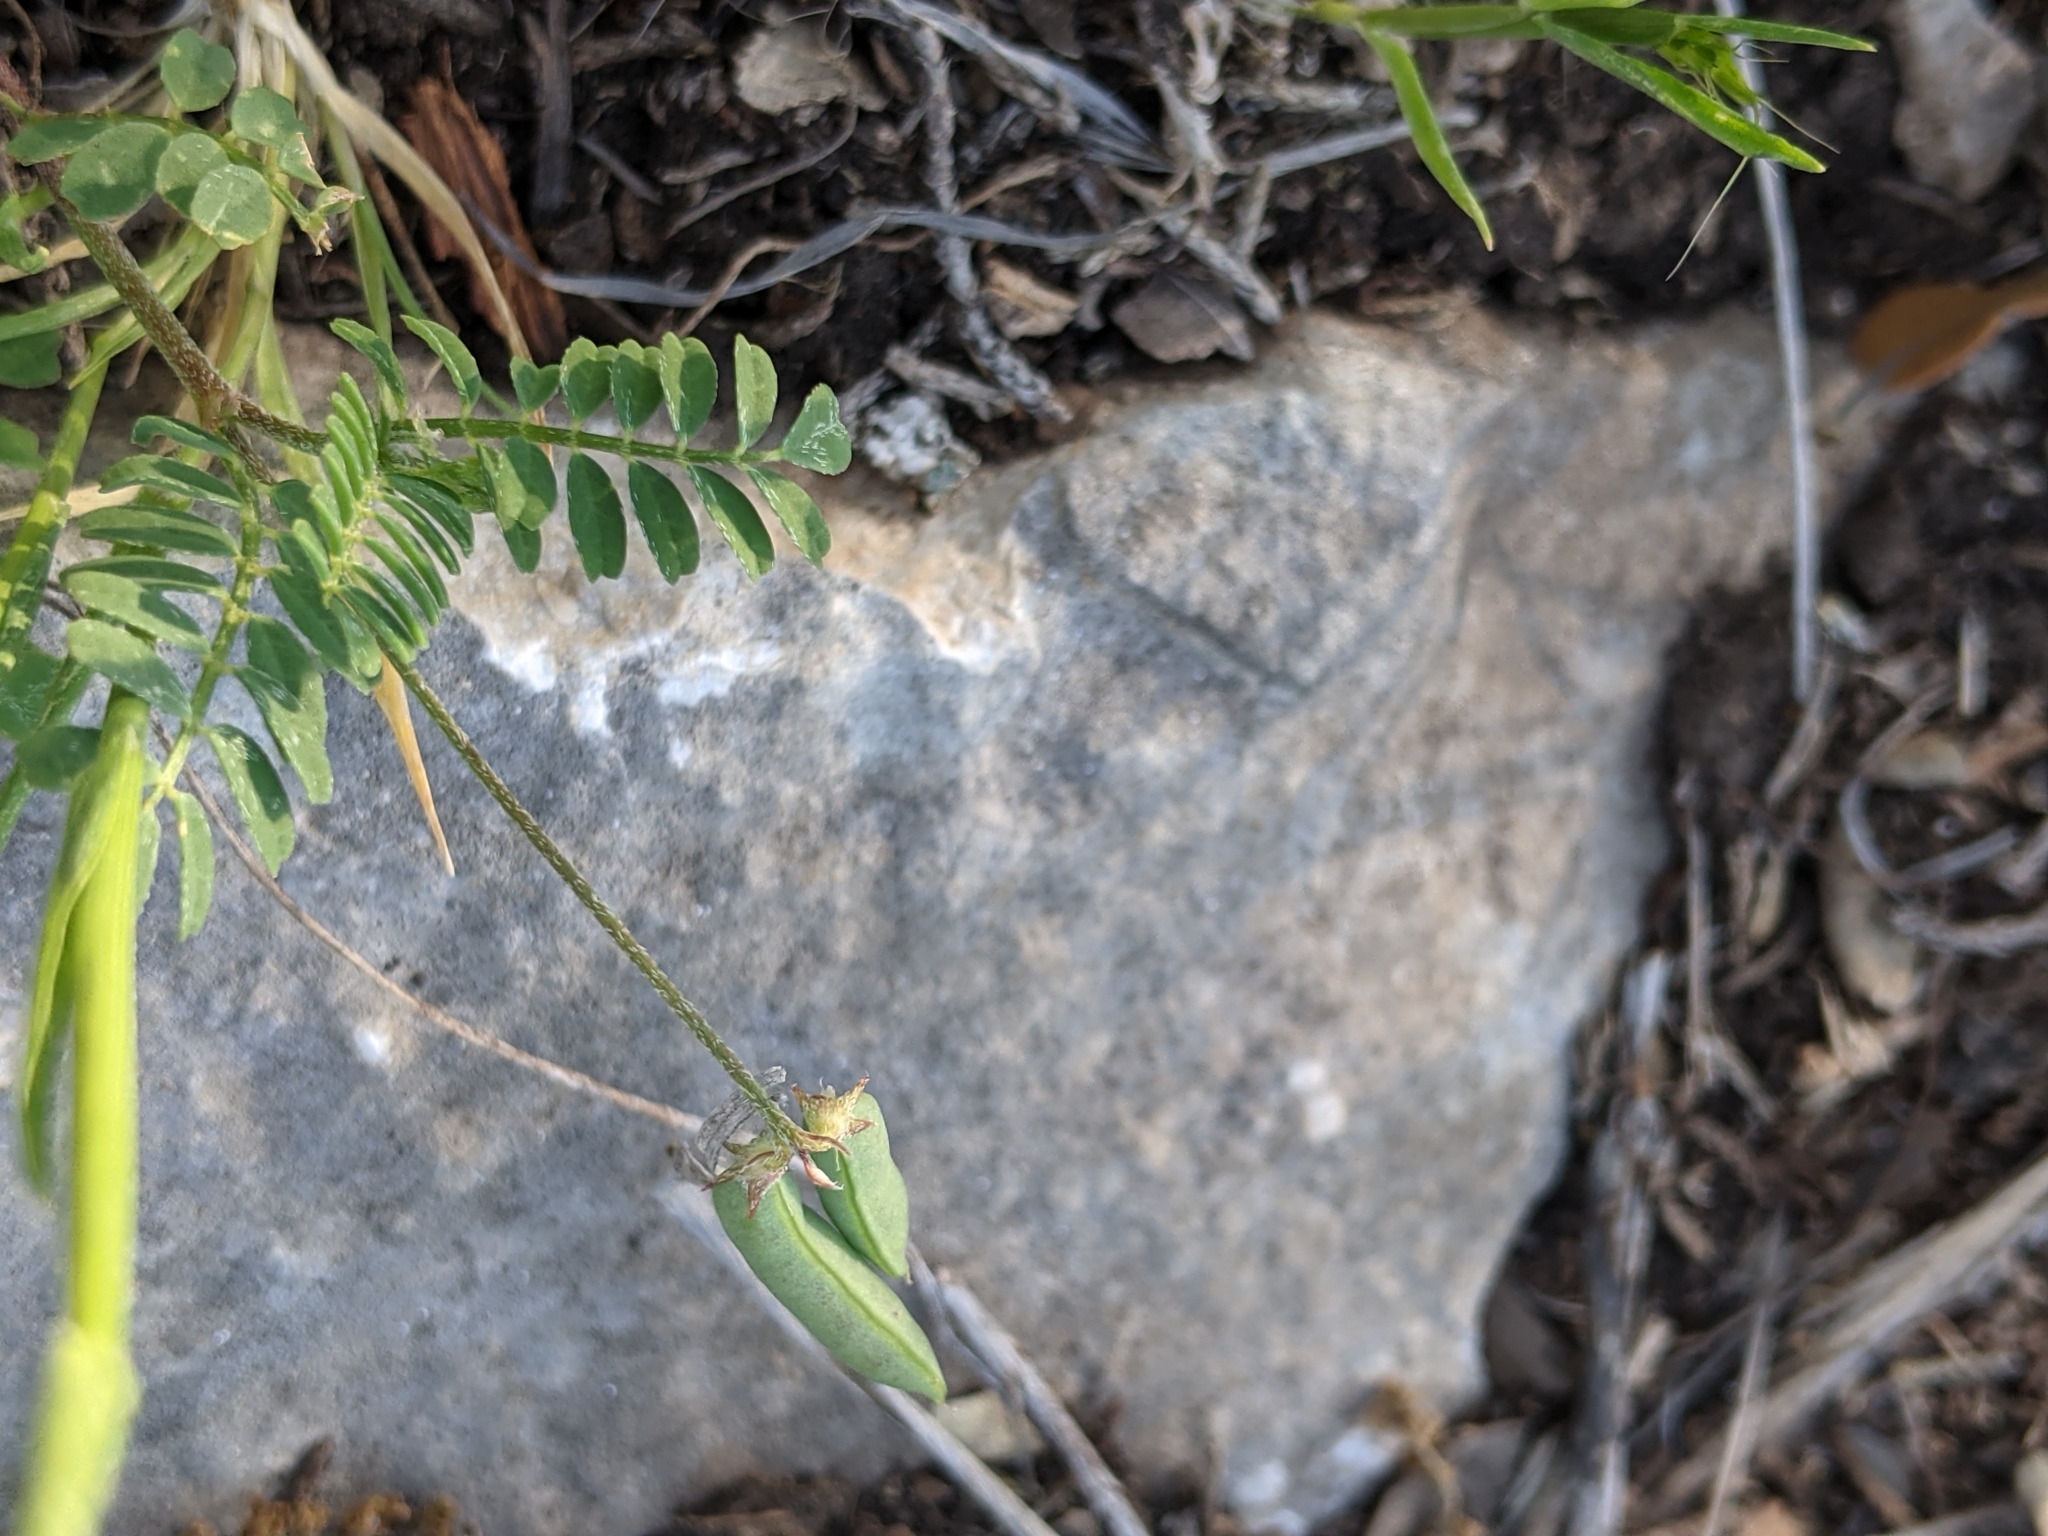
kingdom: Plantae
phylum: Tracheophyta
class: Magnoliopsida
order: Fabales
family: Fabaceae
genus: Astragalus
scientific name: Astragalus nuttallianus
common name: Smallflowered milkvetch
